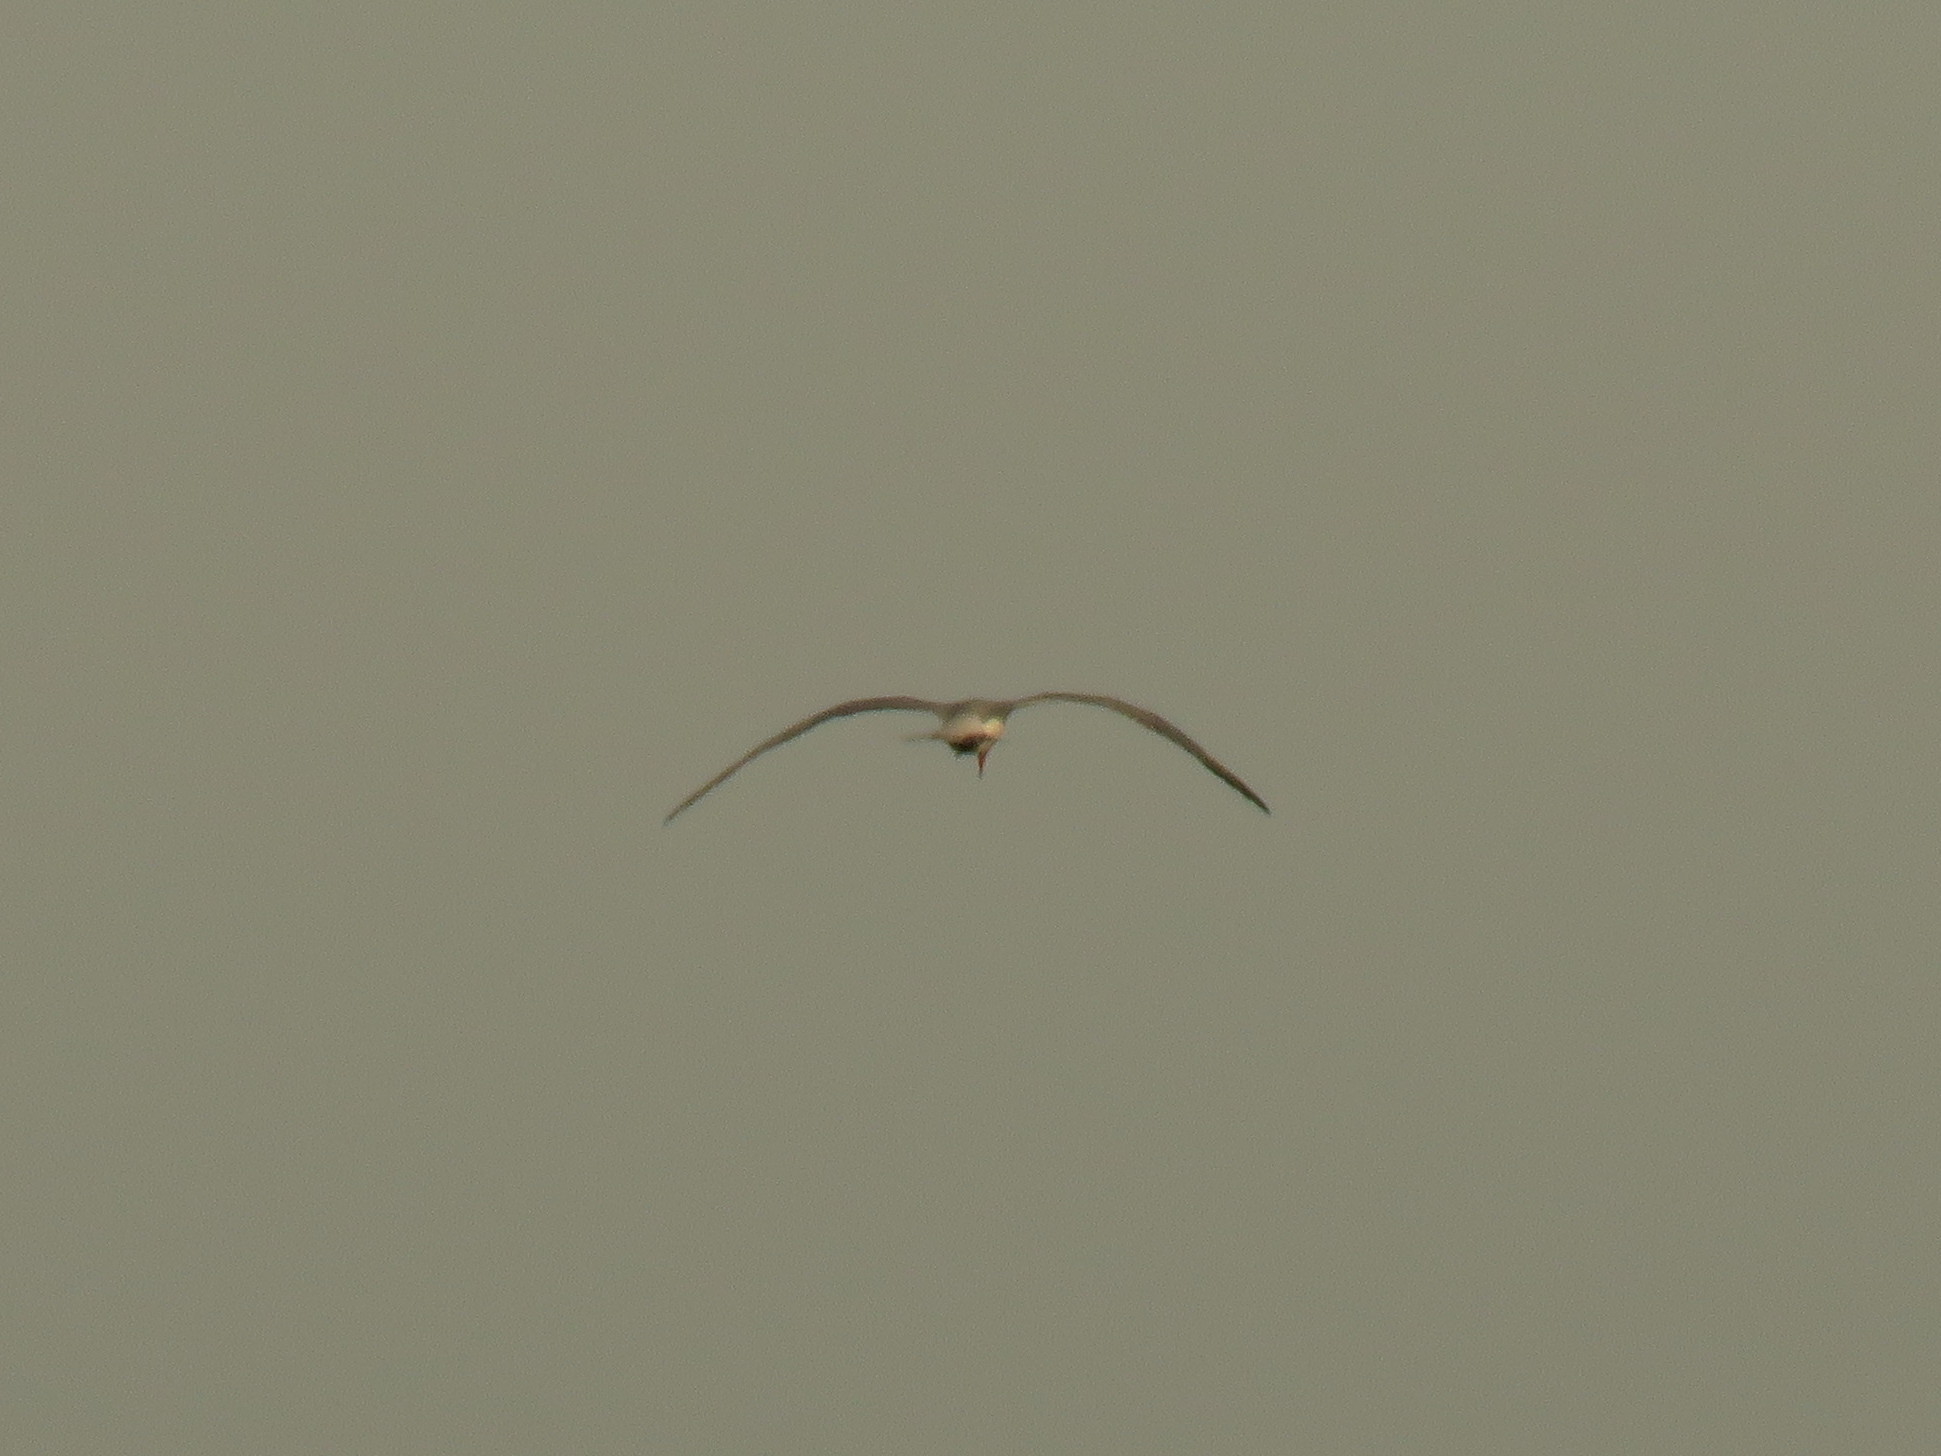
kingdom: Animalia
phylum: Chordata
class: Aves
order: Charadriiformes
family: Laridae
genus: Hydroprogne
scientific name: Hydroprogne caspia
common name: Caspian tern
